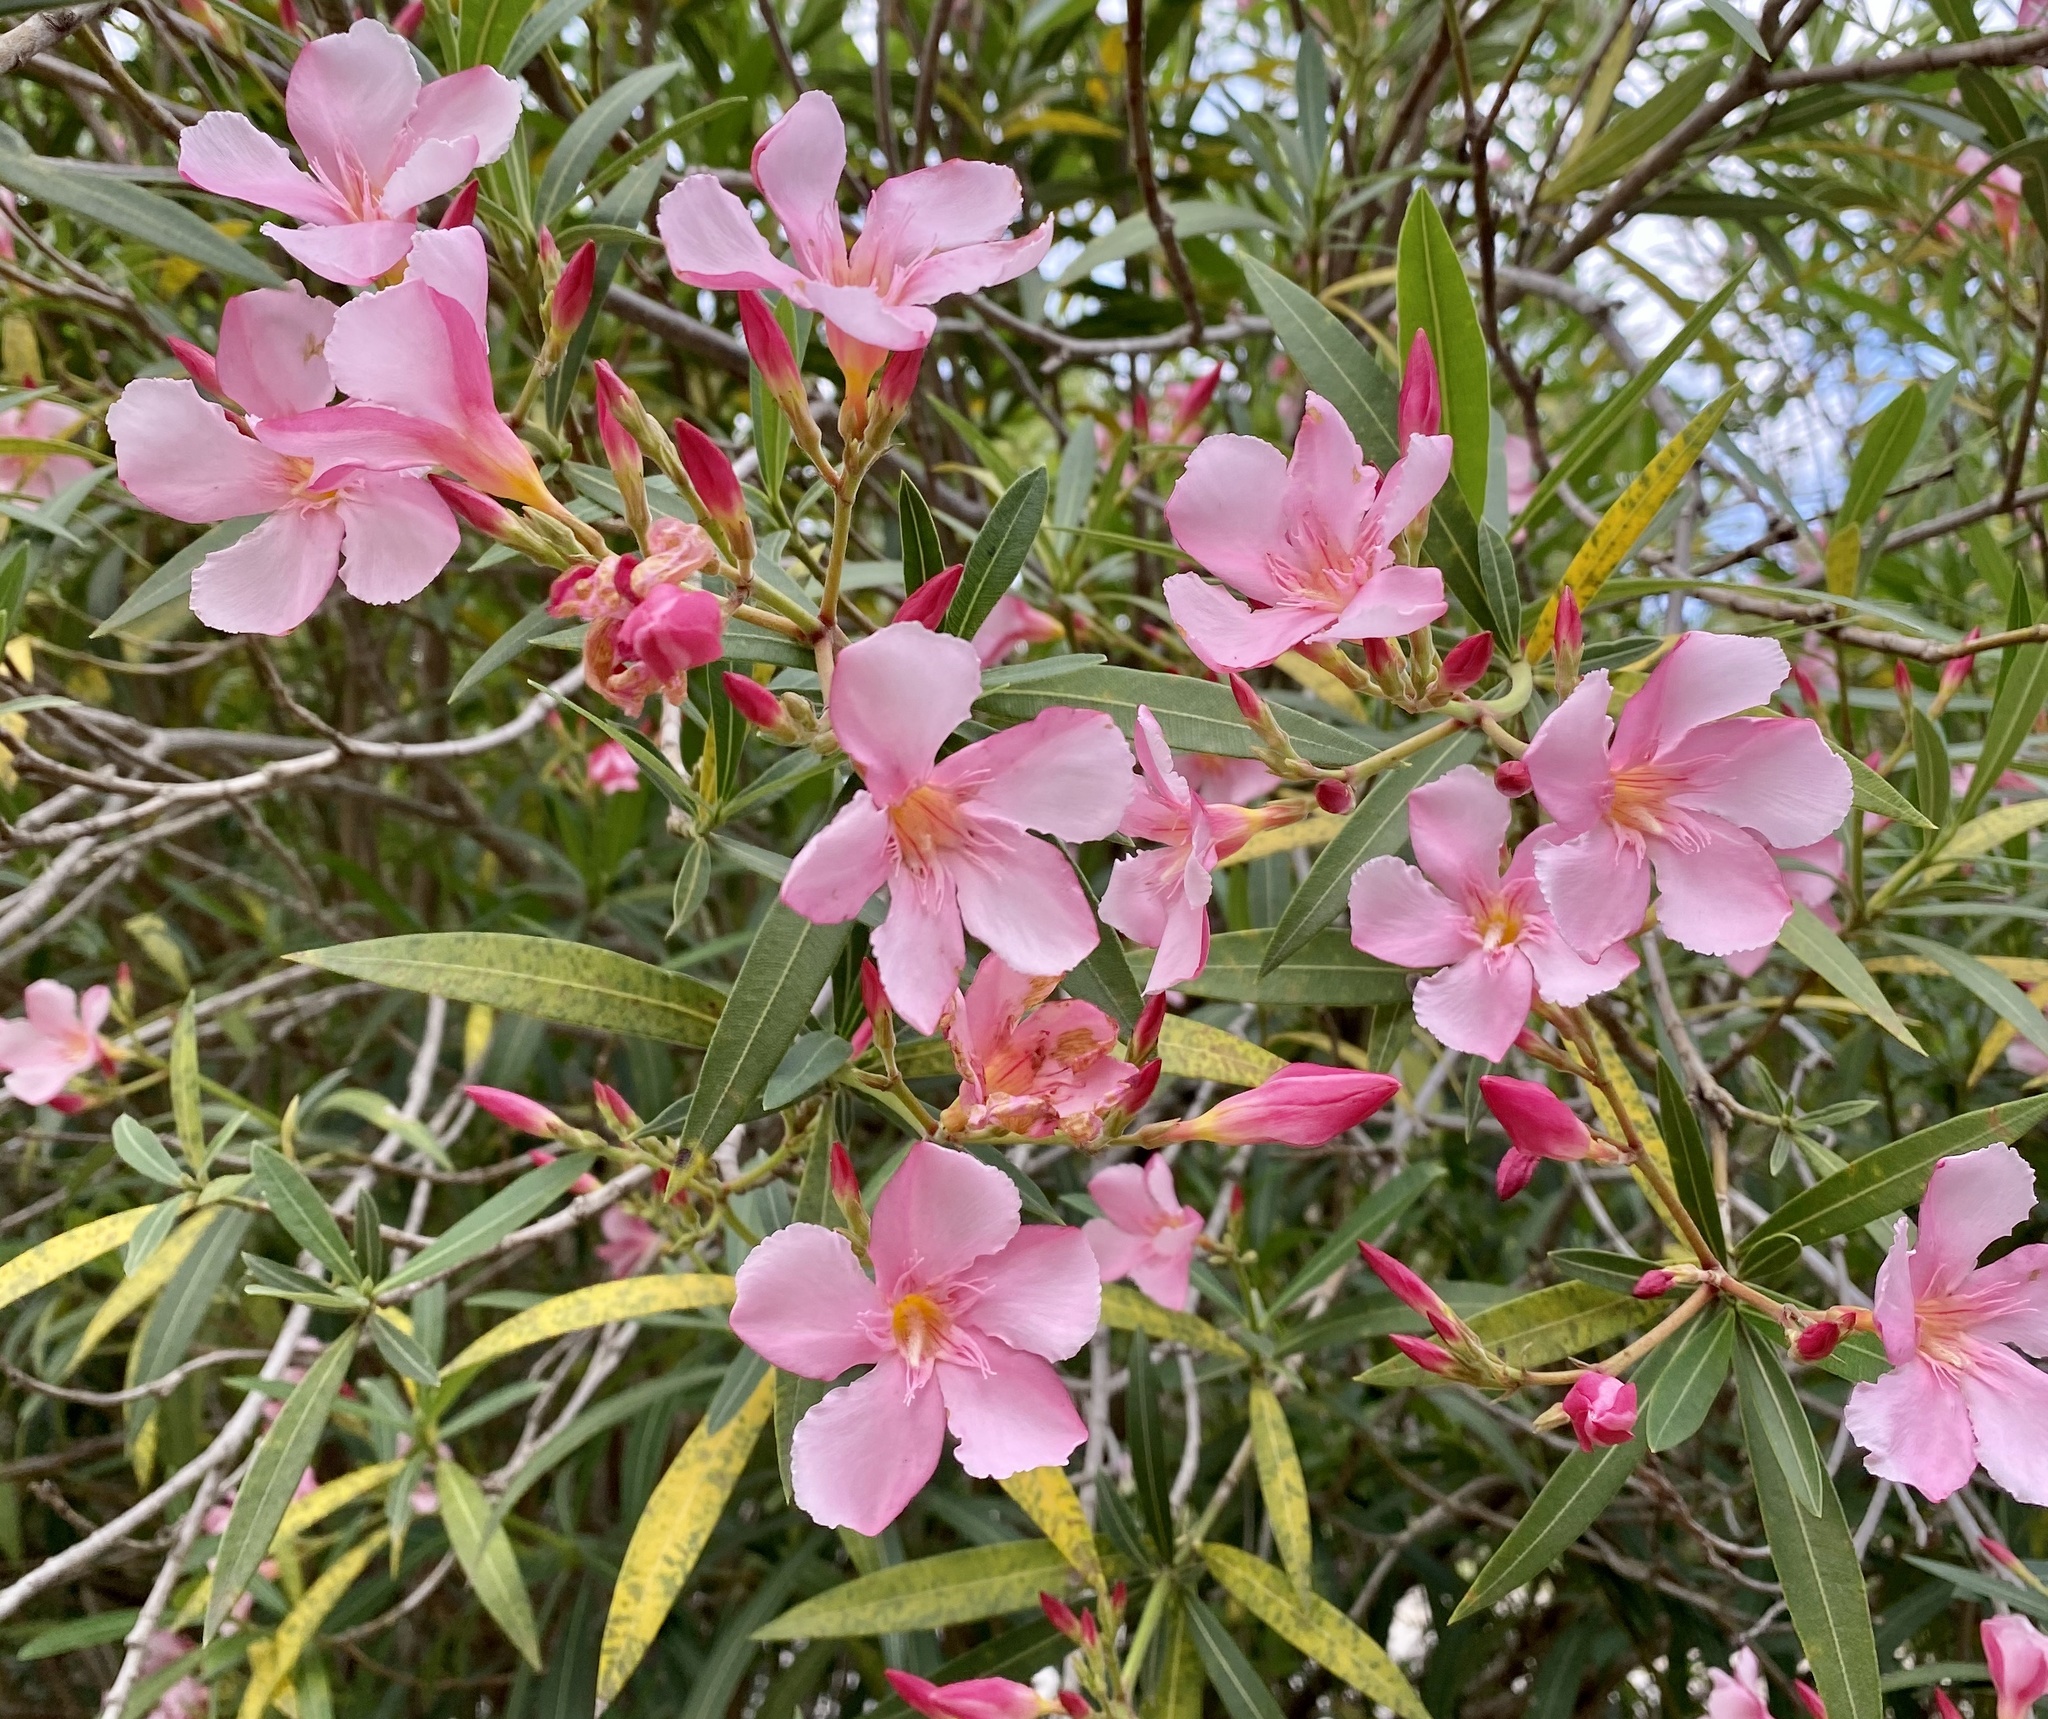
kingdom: Plantae
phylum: Tracheophyta
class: Magnoliopsida
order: Gentianales
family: Apocynaceae
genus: Nerium
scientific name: Nerium oleander
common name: Oleander
